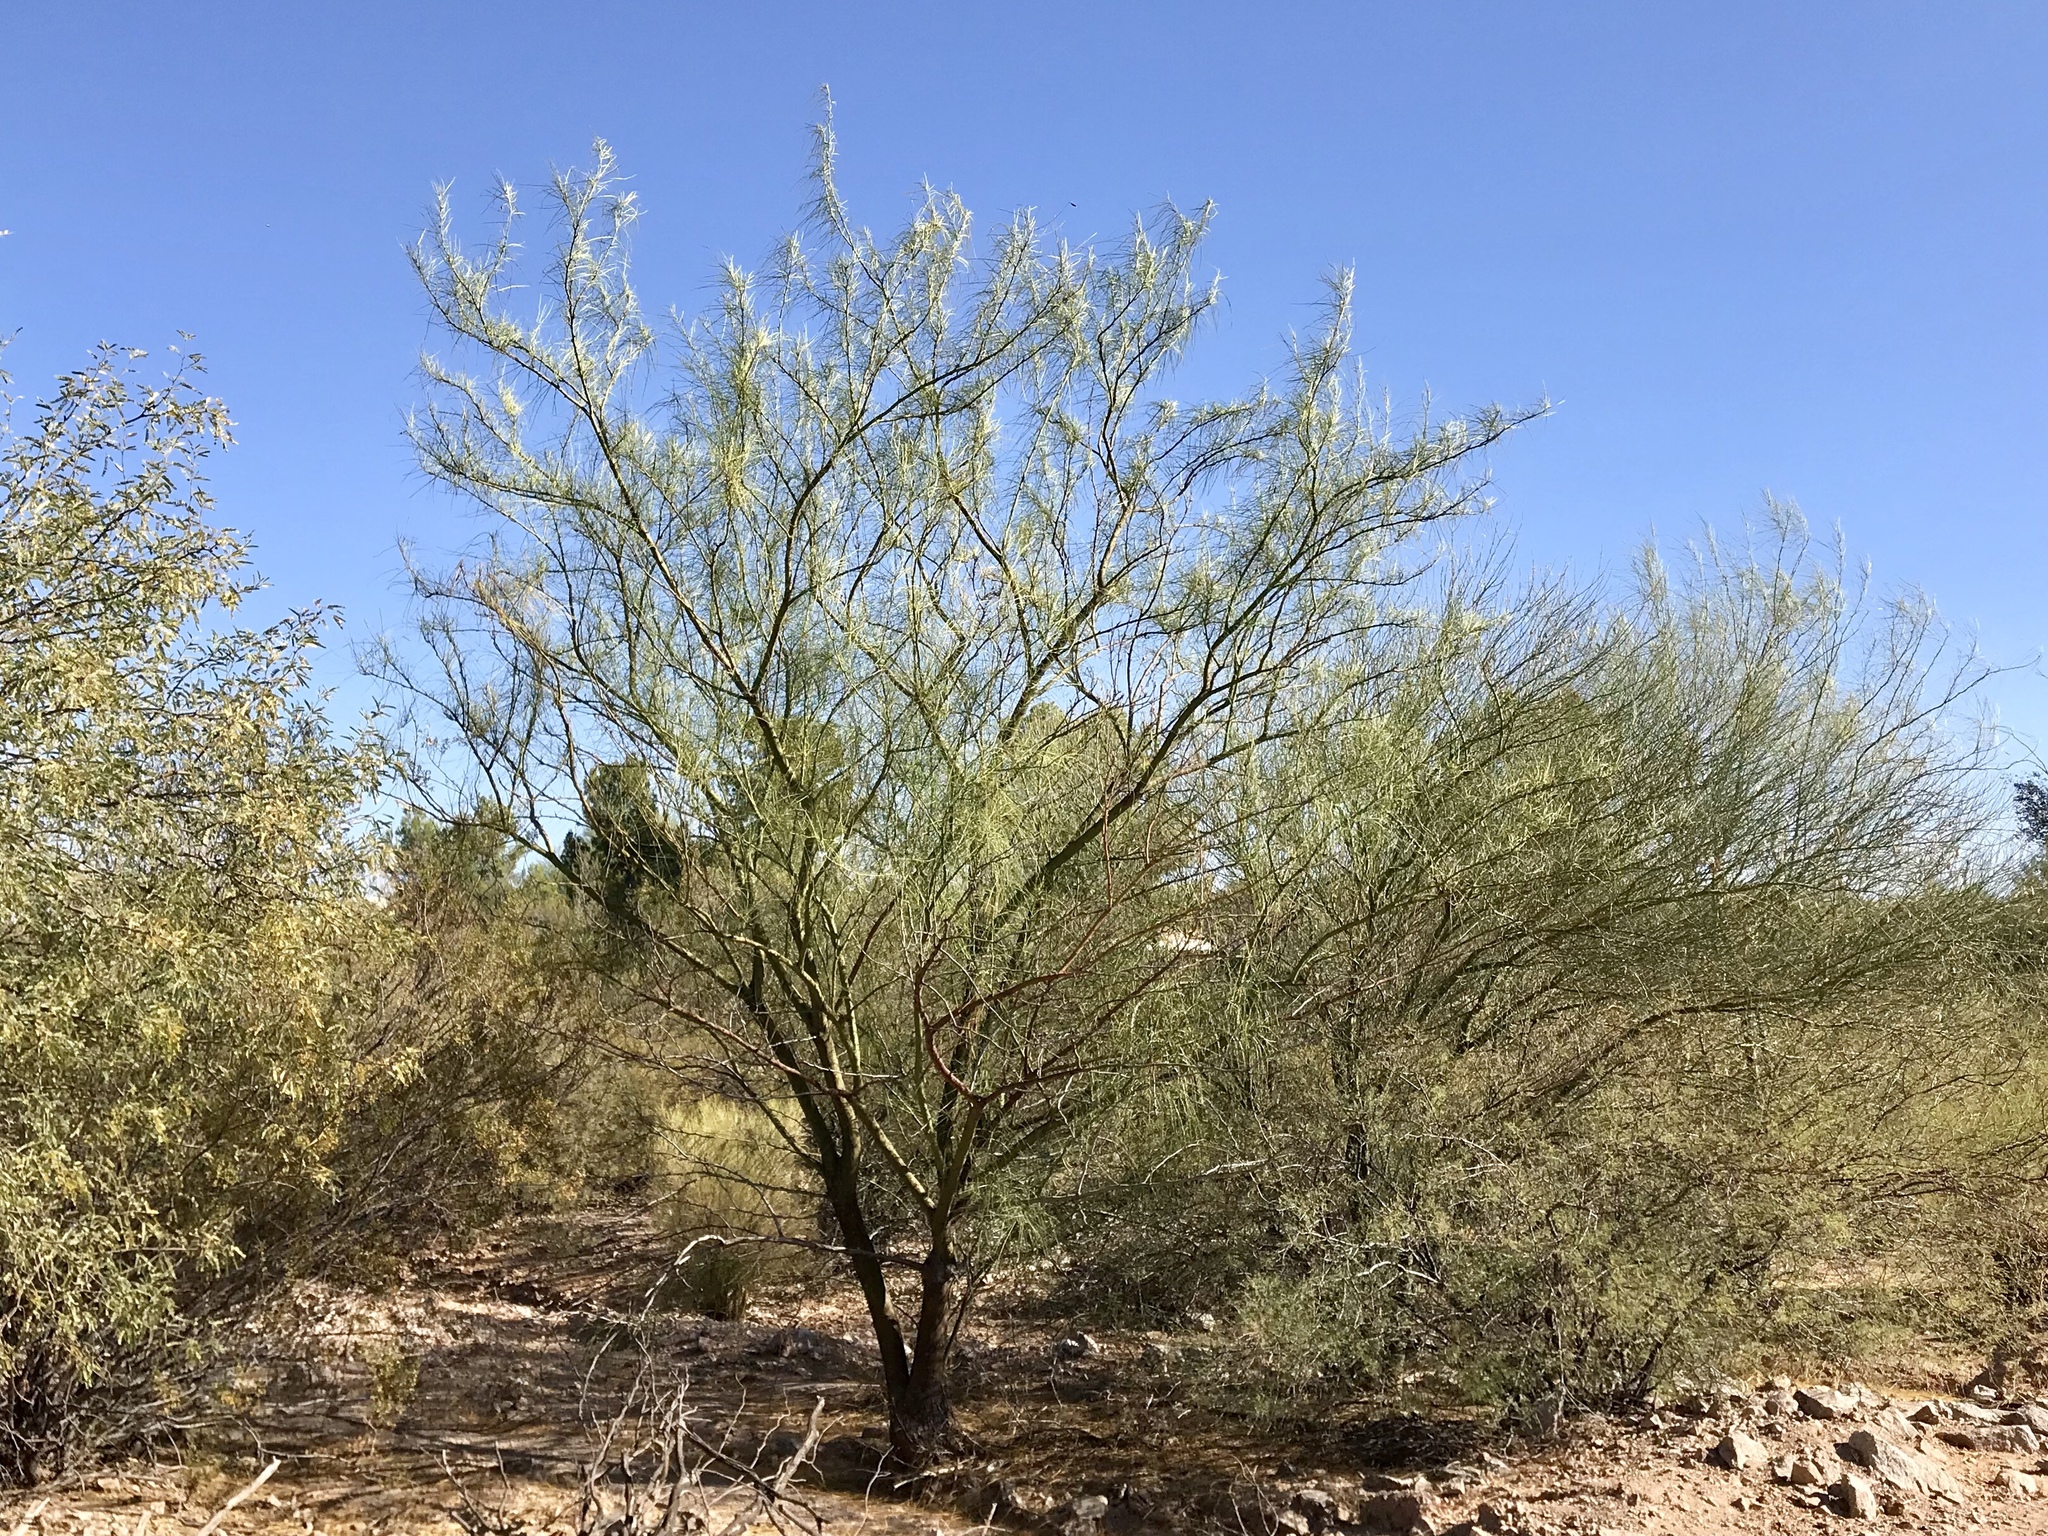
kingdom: Plantae
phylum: Tracheophyta
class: Magnoliopsida
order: Fabales
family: Fabaceae
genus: Parkinsonia
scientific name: Parkinsonia aculeata
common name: Jerusalem thorn
